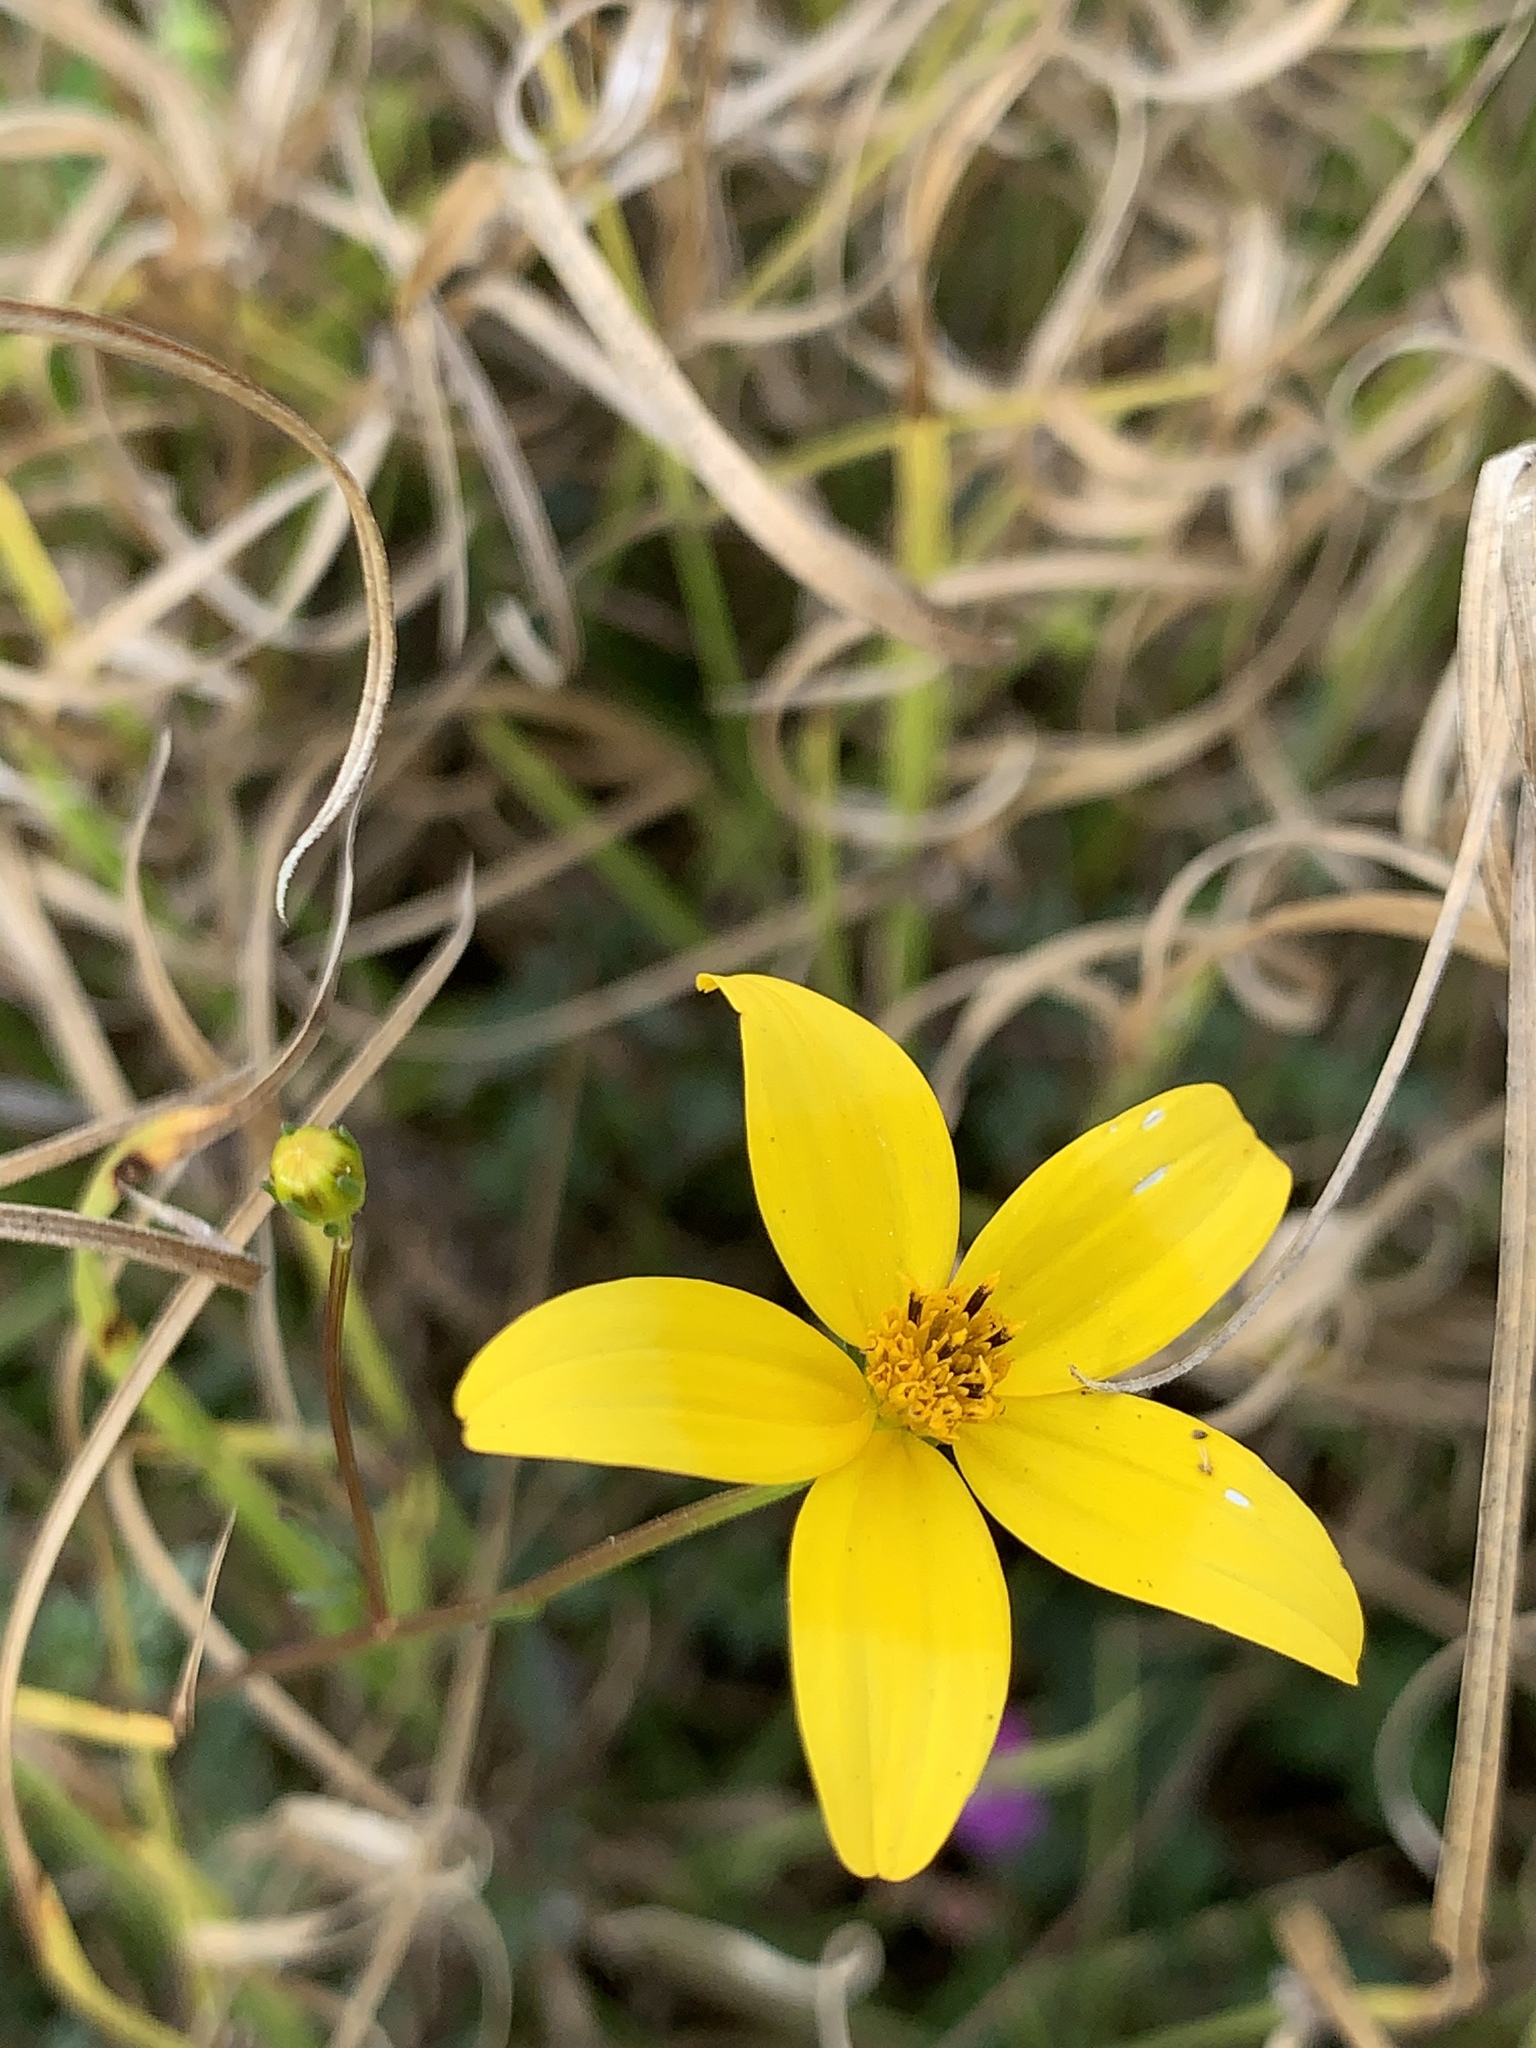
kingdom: Plantae
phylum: Tracheophyta
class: Magnoliopsida
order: Asterales
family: Asteraceae
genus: Bidens
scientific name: Bidens andicola
